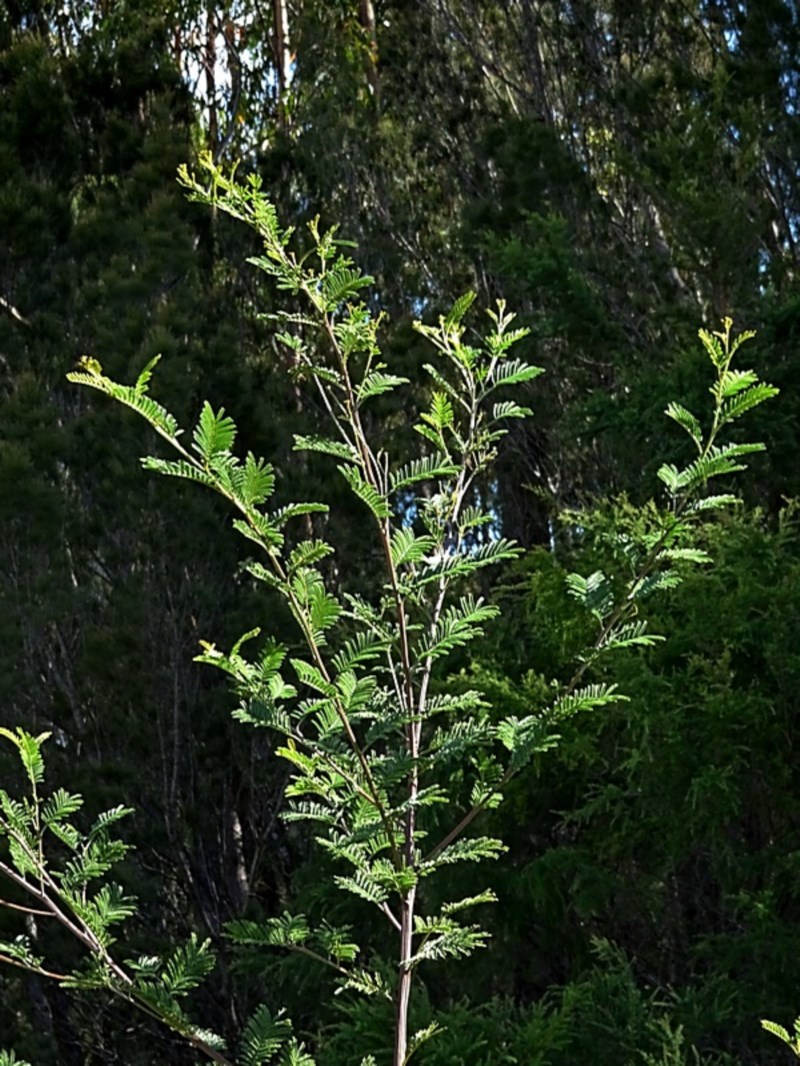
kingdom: Plantae
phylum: Tracheophyta
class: Magnoliopsida
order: Fabales
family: Fabaceae
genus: Acacia
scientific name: Acacia constablei
